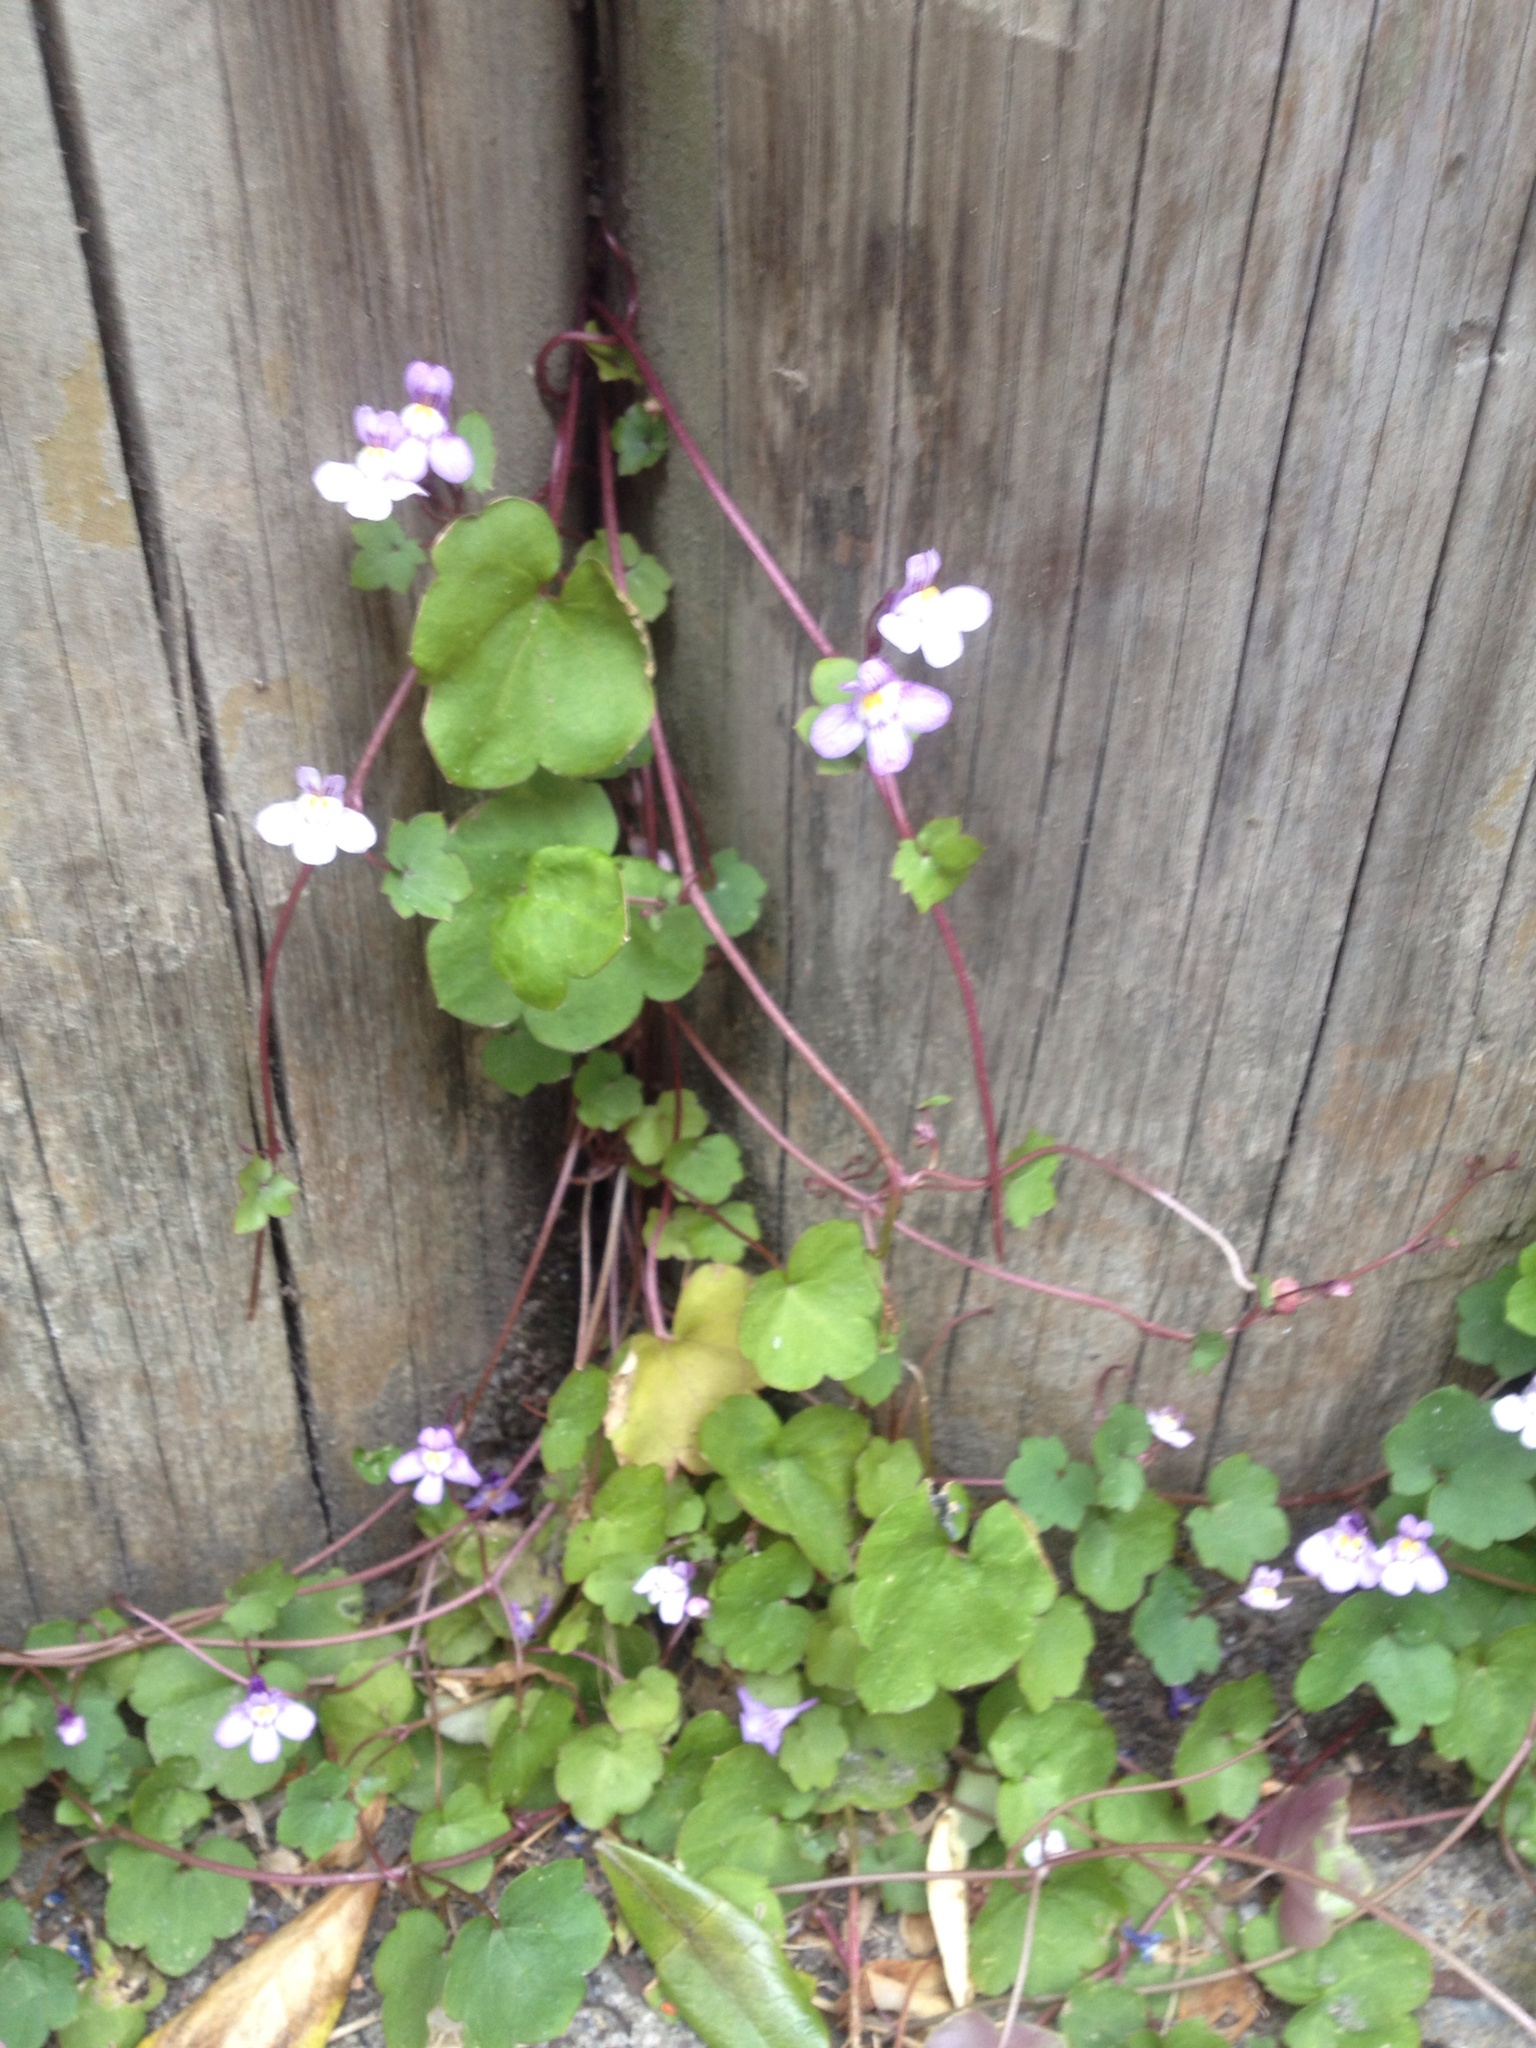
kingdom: Plantae
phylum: Tracheophyta
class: Magnoliopsida
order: Lamiales
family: Plantaginaceae
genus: Cymbalaria
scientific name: Cymbalaria muralis
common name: Ivy-leaved toadflax
